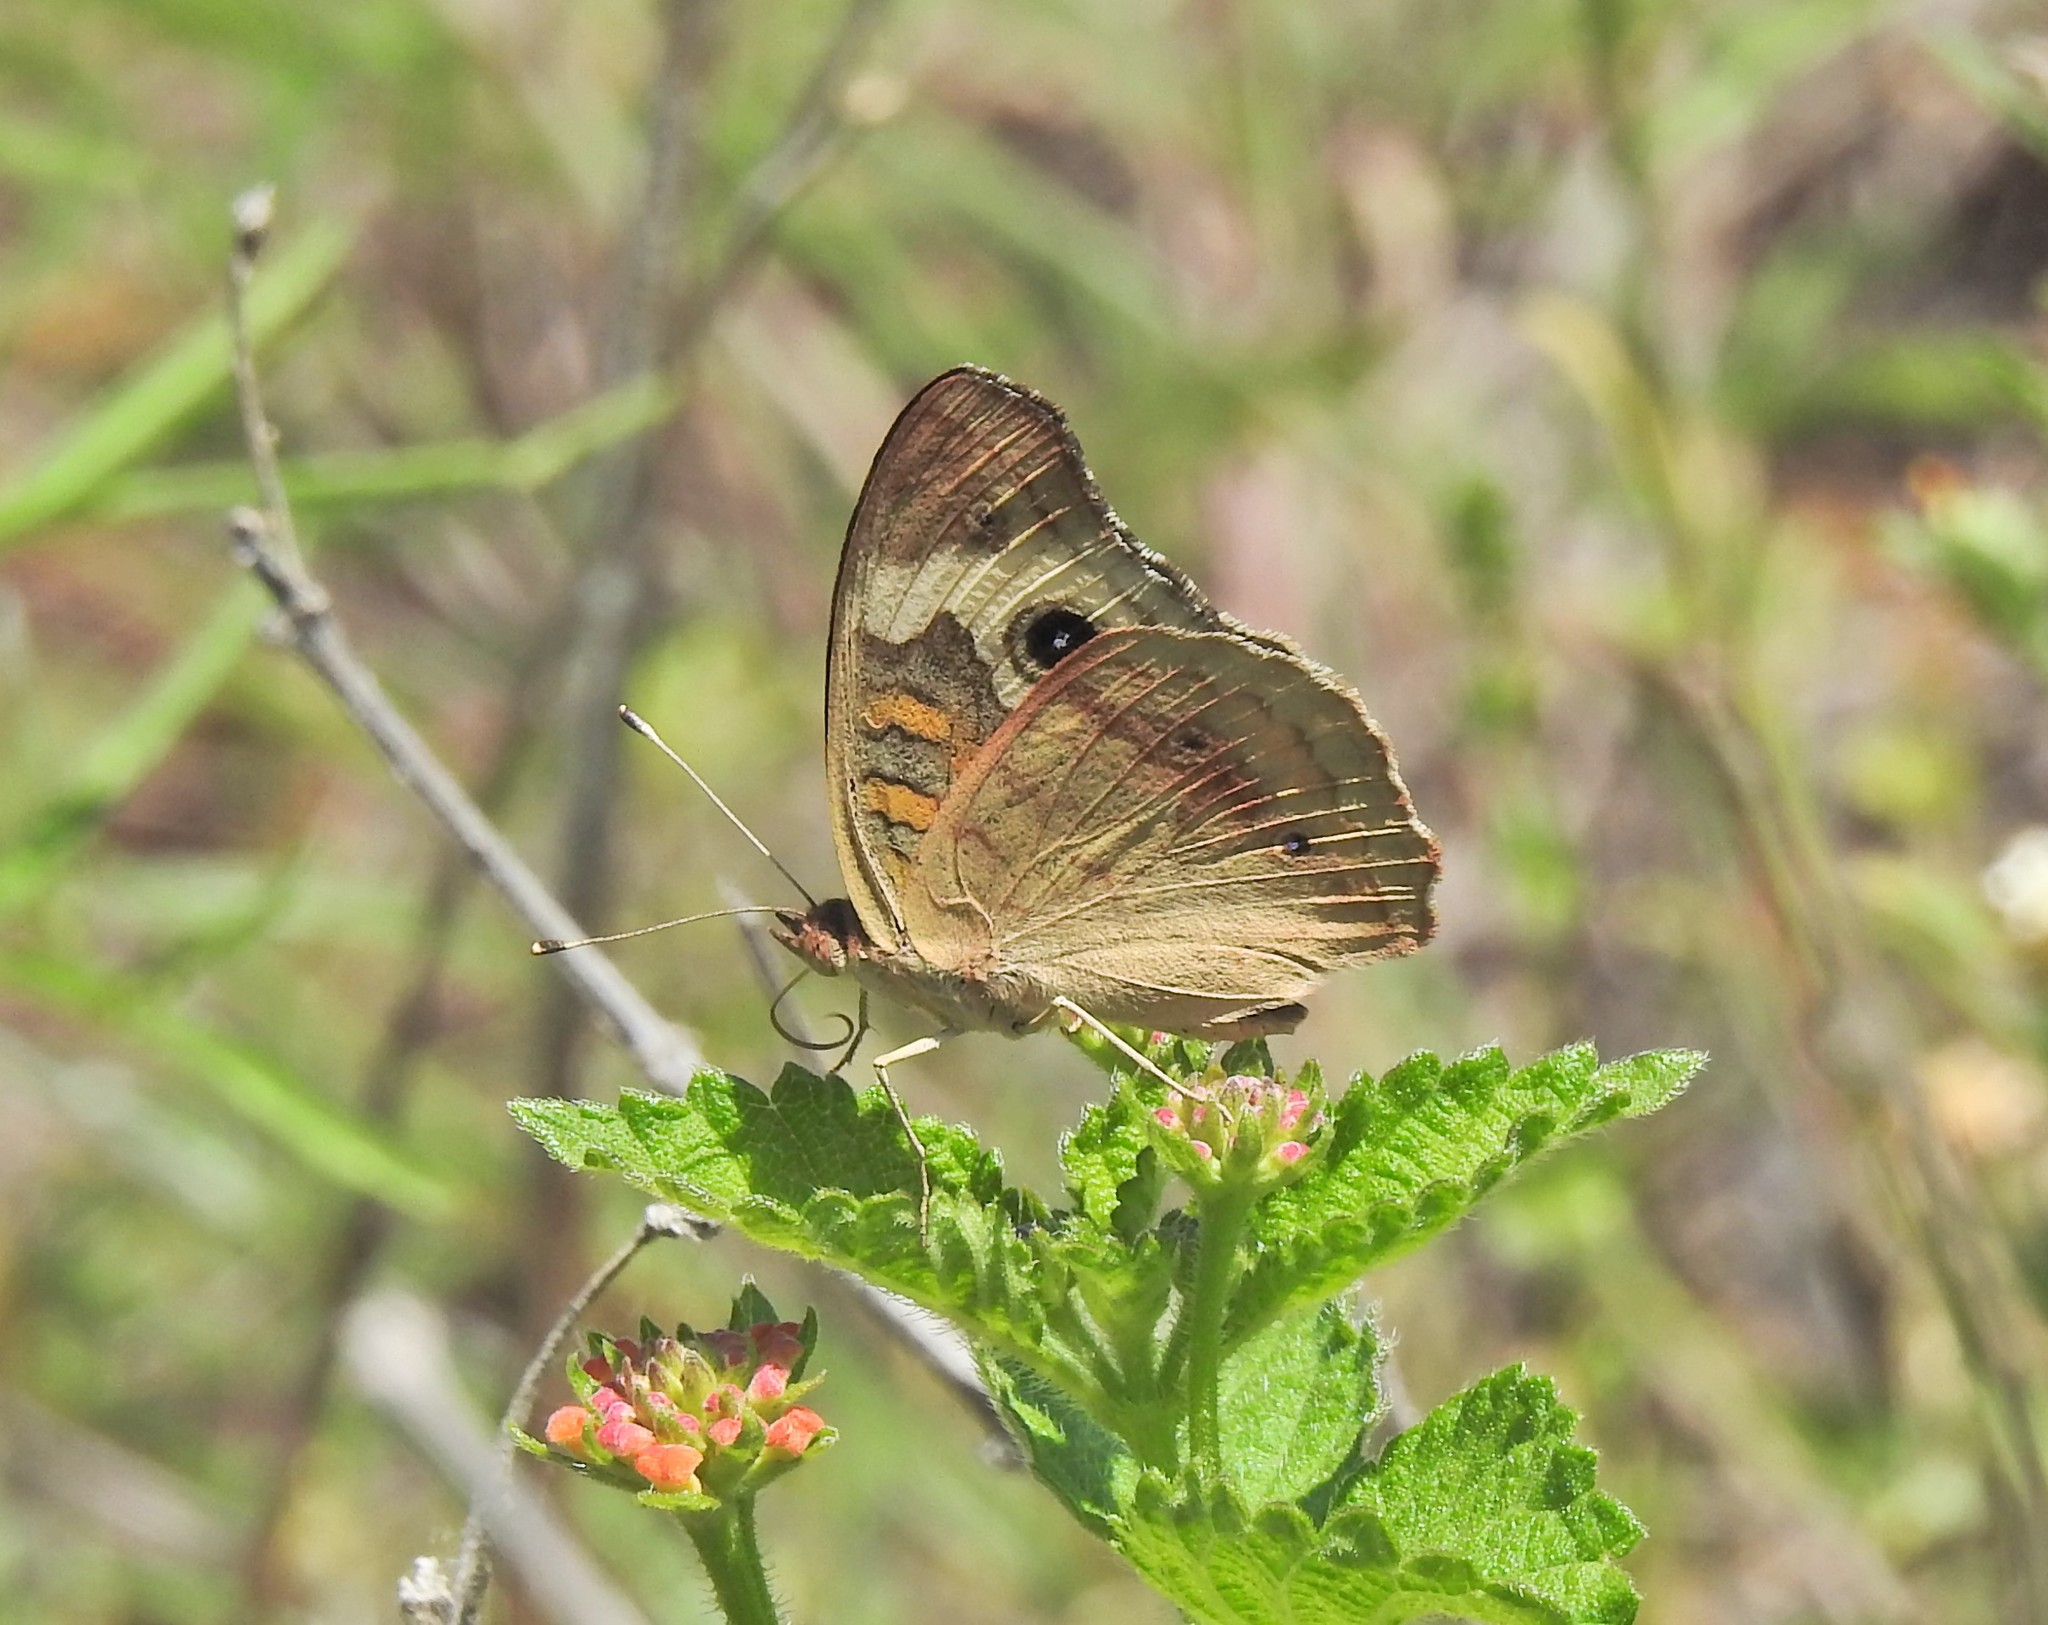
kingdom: Animalia
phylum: Arthropoda
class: Insecta
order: Lepidoptera
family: Nymphalidae
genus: Junonia
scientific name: Junonia coenia
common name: Common buckeye
